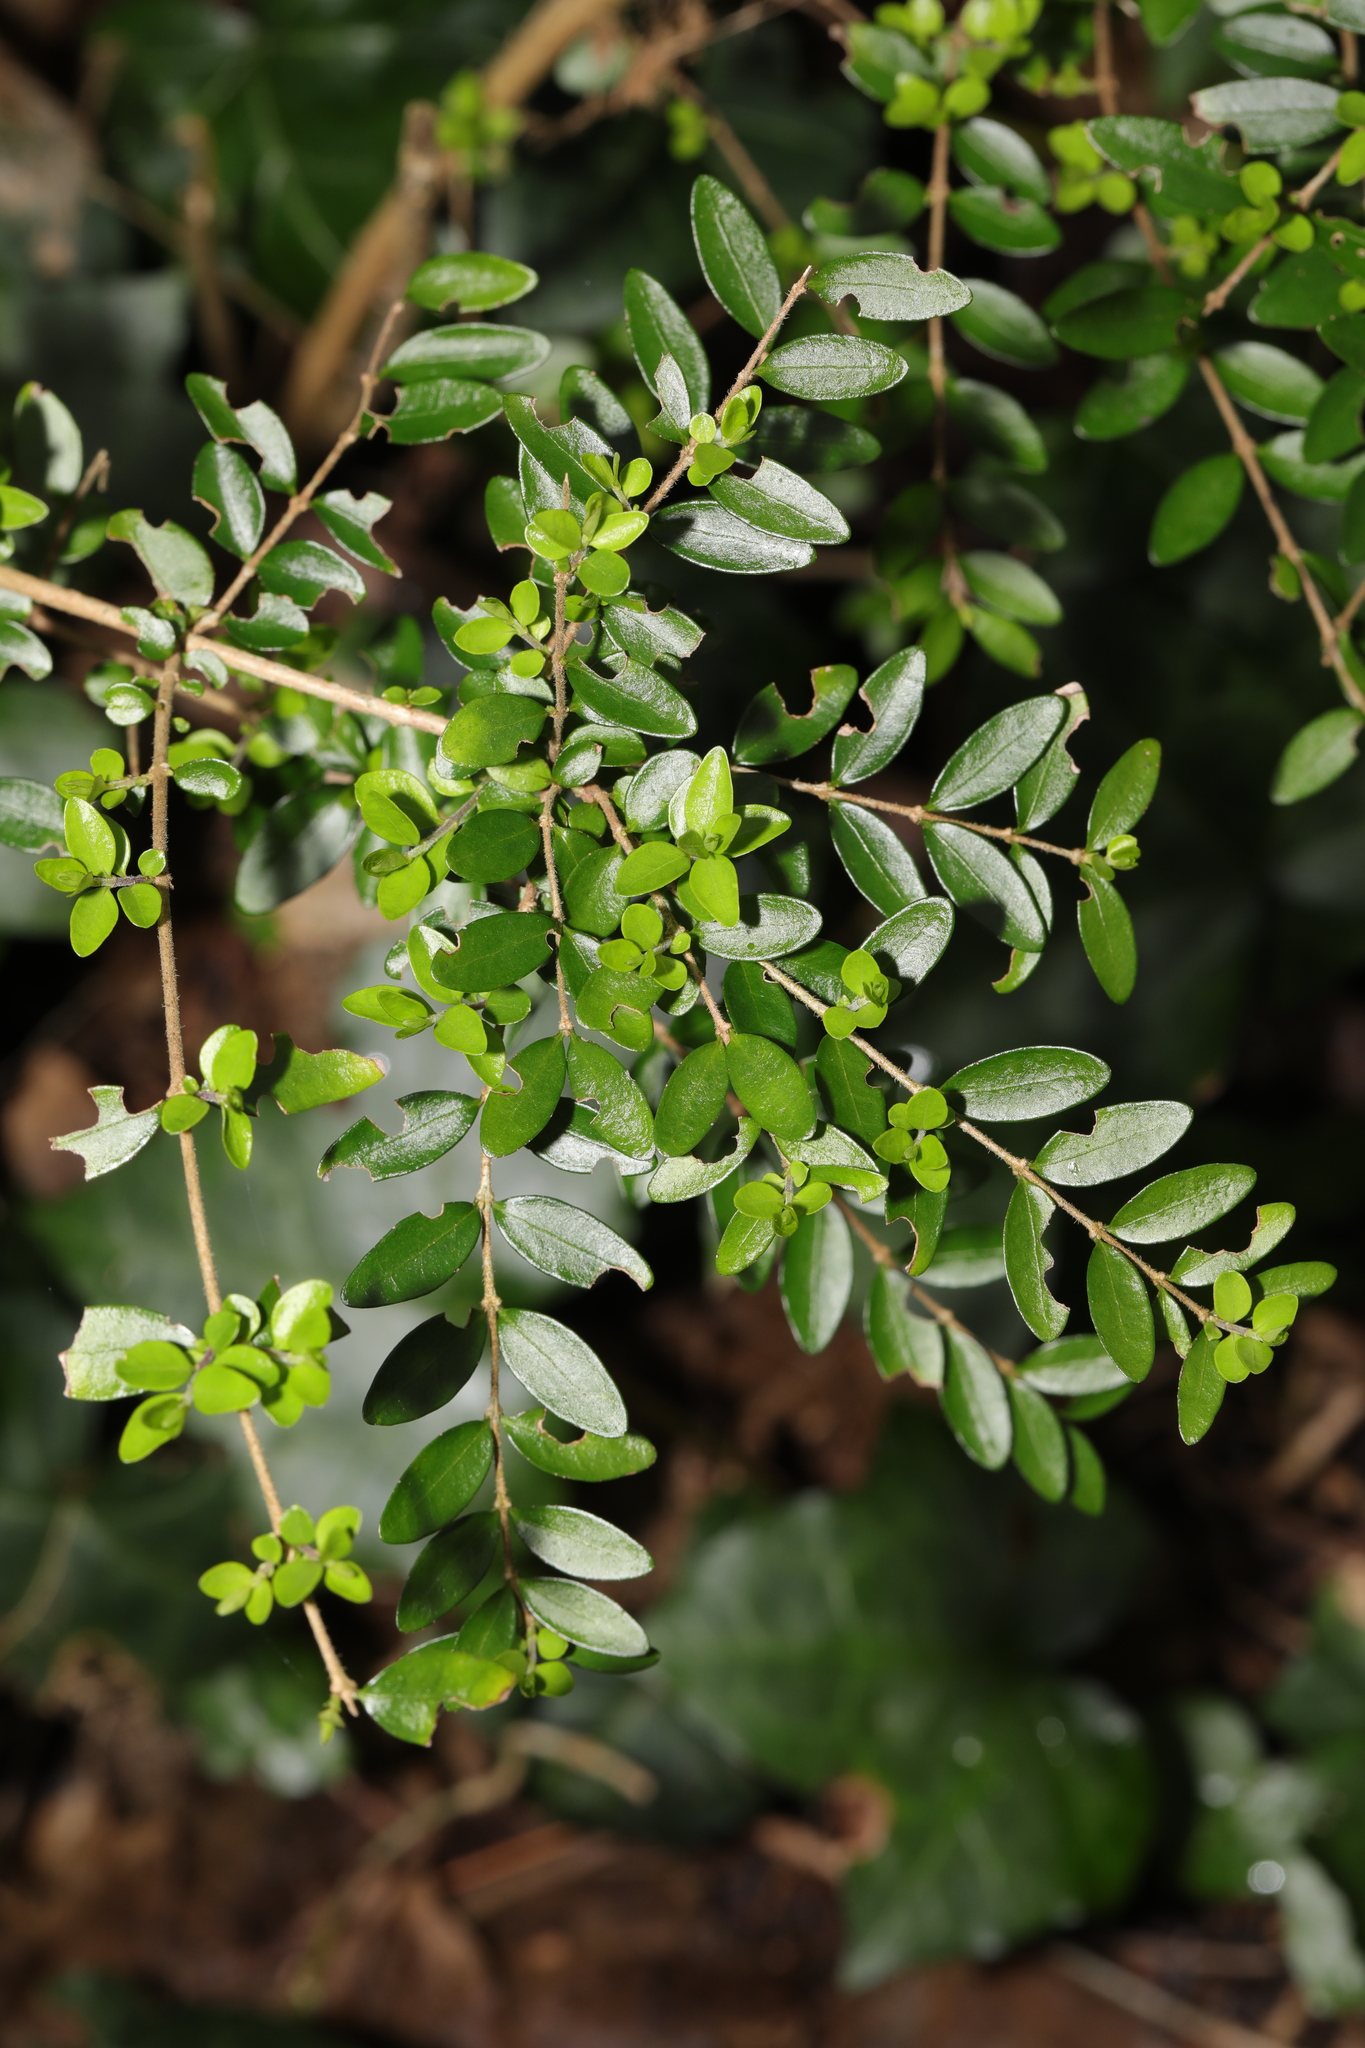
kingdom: Plantae
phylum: Tracheophyta
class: Magnoliopsida
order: Dipsacales
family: Caprifoliaceae
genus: Lonicera
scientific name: Lonicera ligustrina
